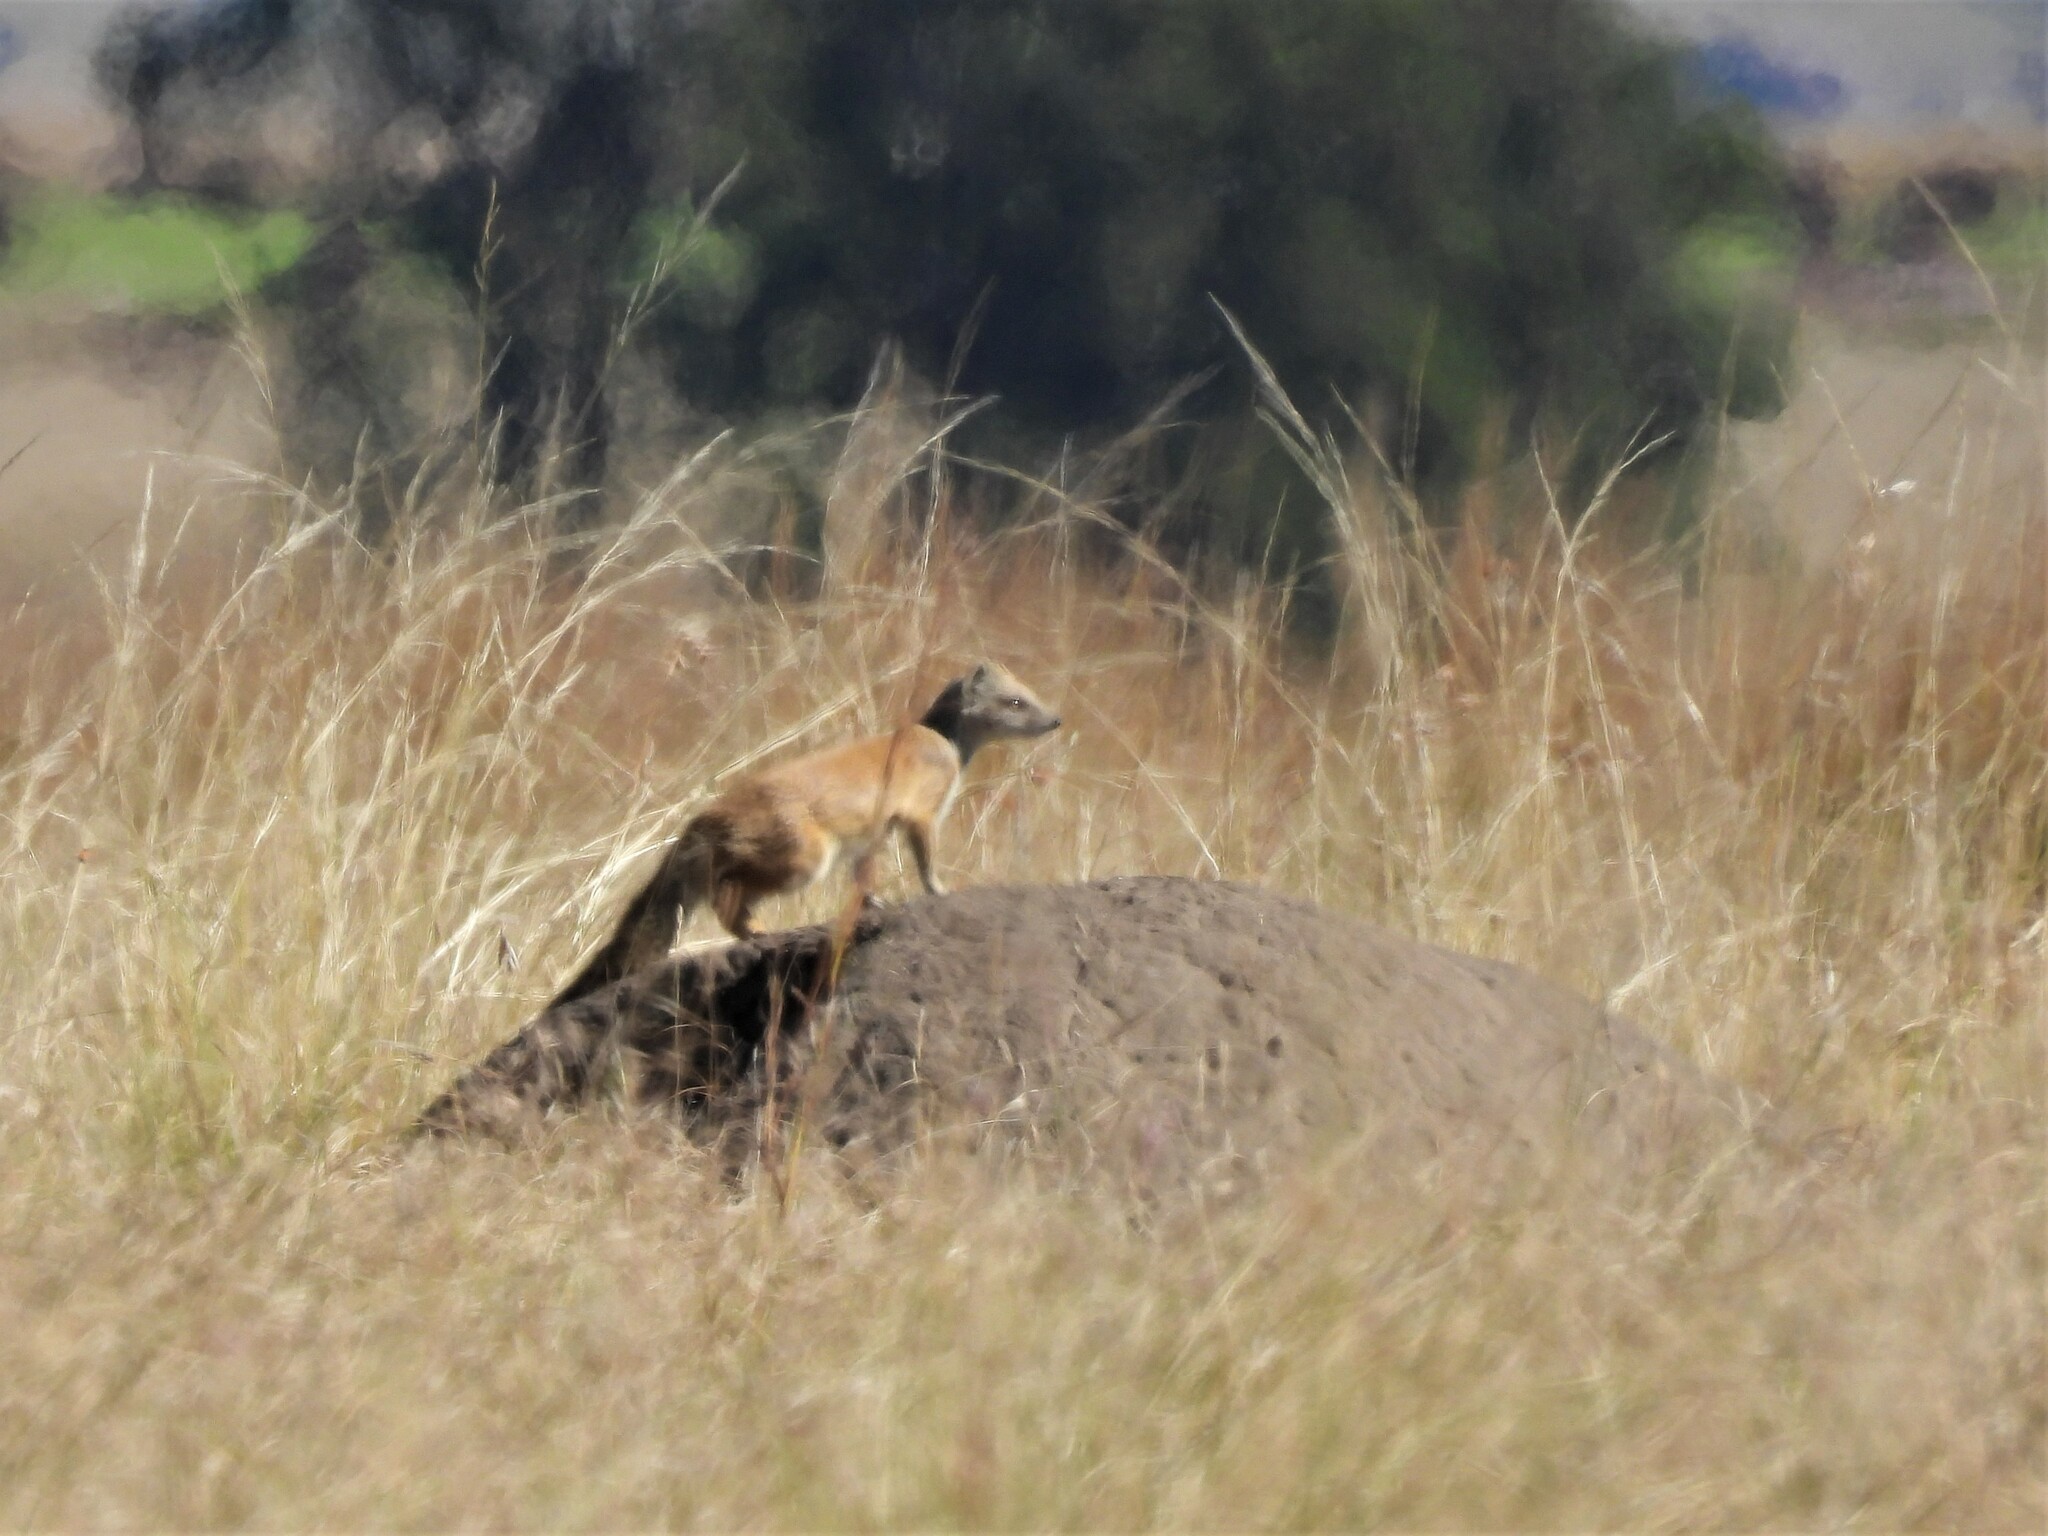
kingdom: Animalia
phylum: Chordata
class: Mammalia
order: Carnivora
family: Herpestidae
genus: Cynictis
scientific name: Cynictis penicillata
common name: Yellow mongoose
